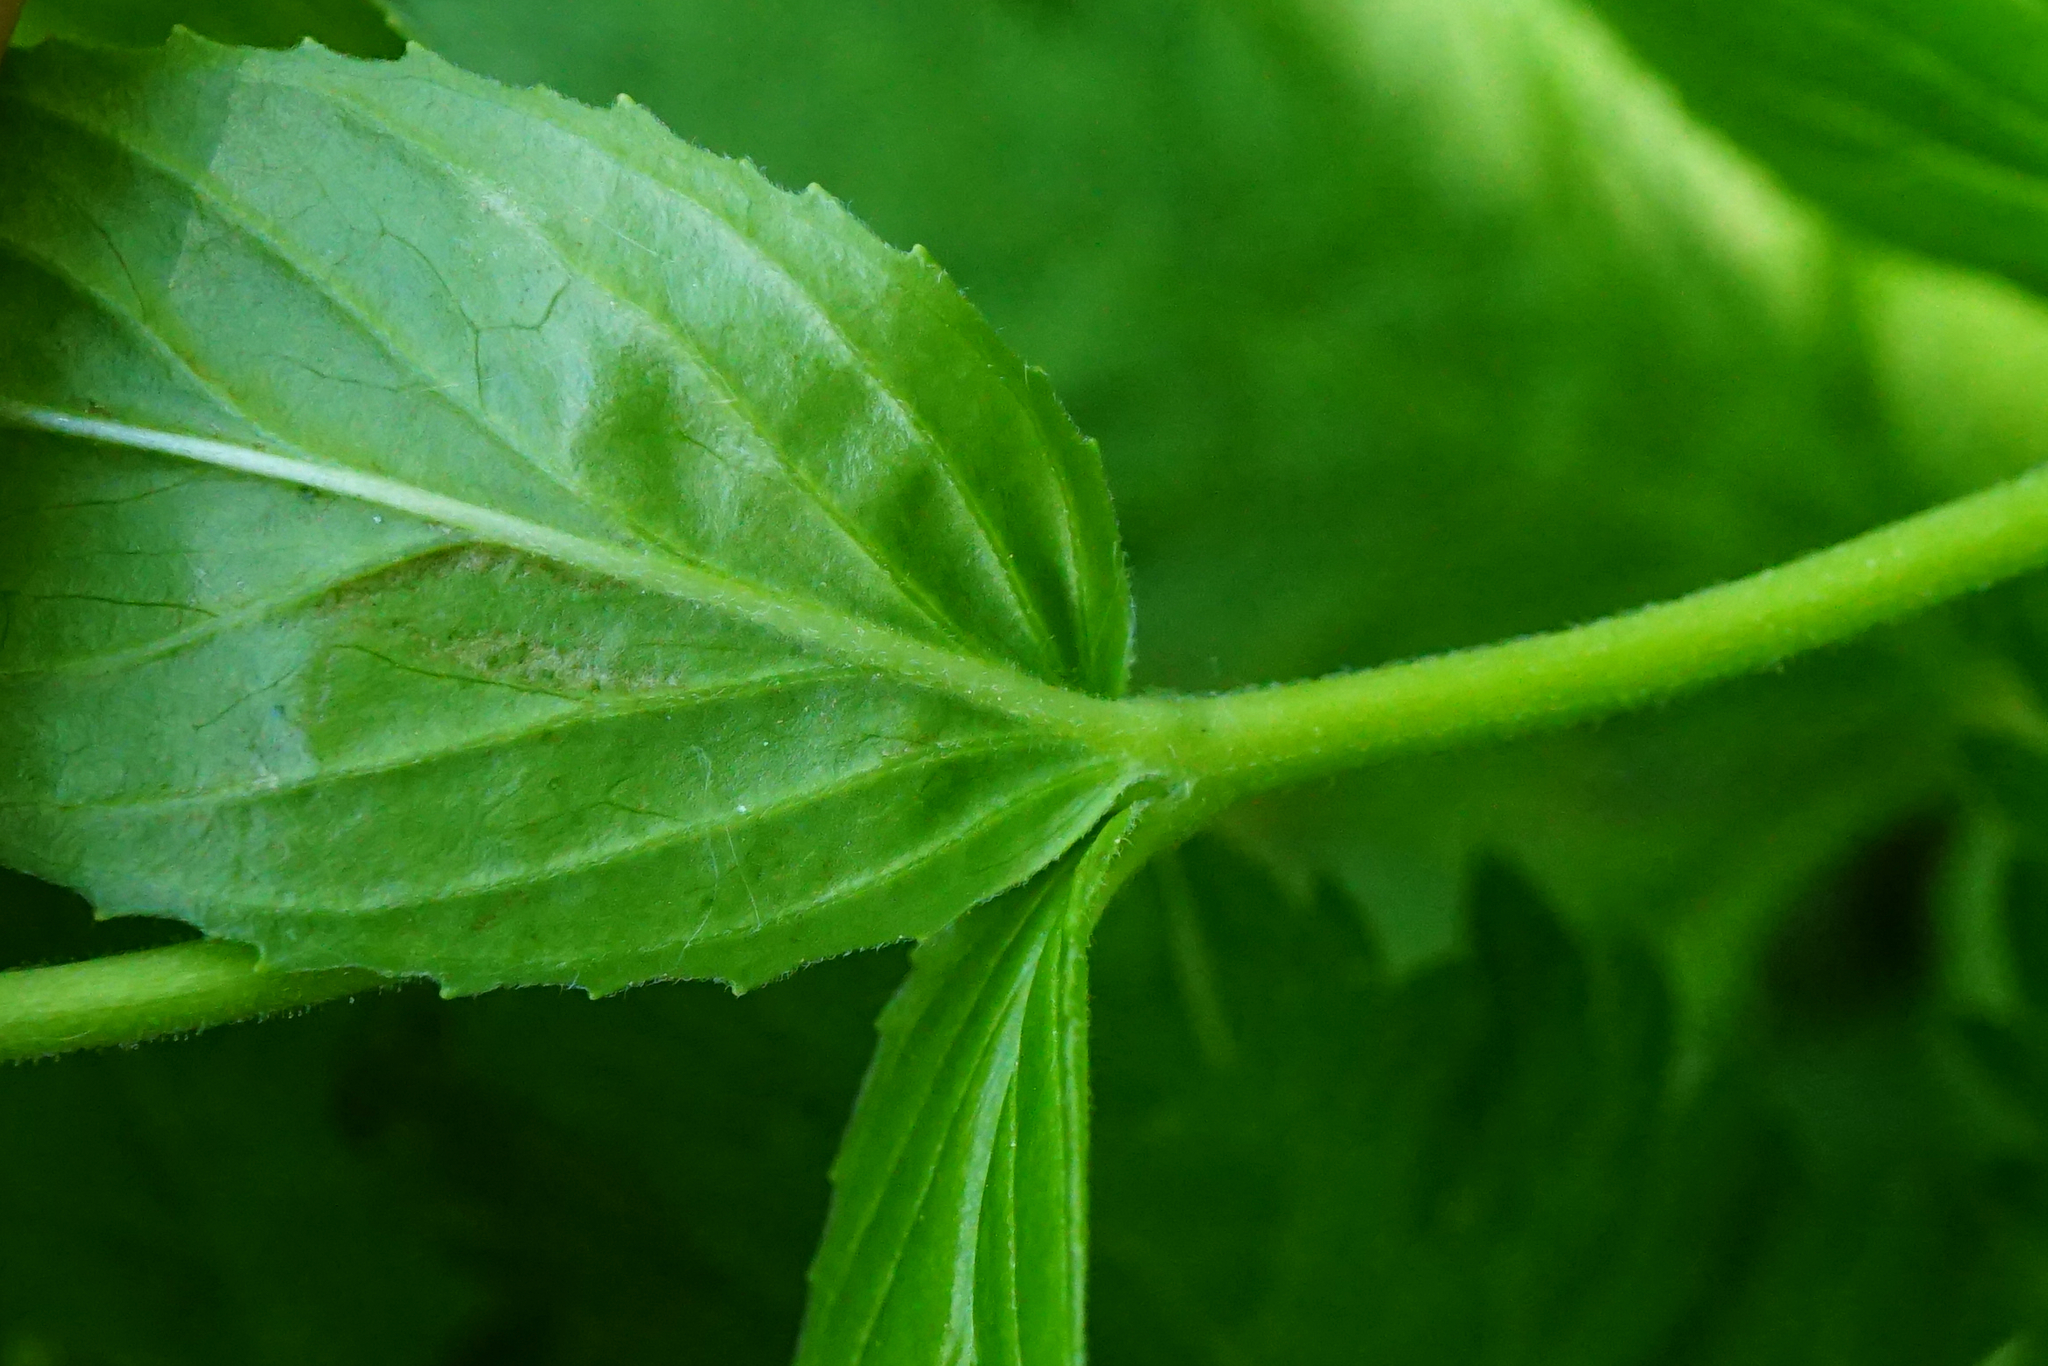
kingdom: Plantae
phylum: Tracheophyta
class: Magnoliopsida
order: Myrtales
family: Onagraceae
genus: Epilobium
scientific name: Epilobium alpestre
